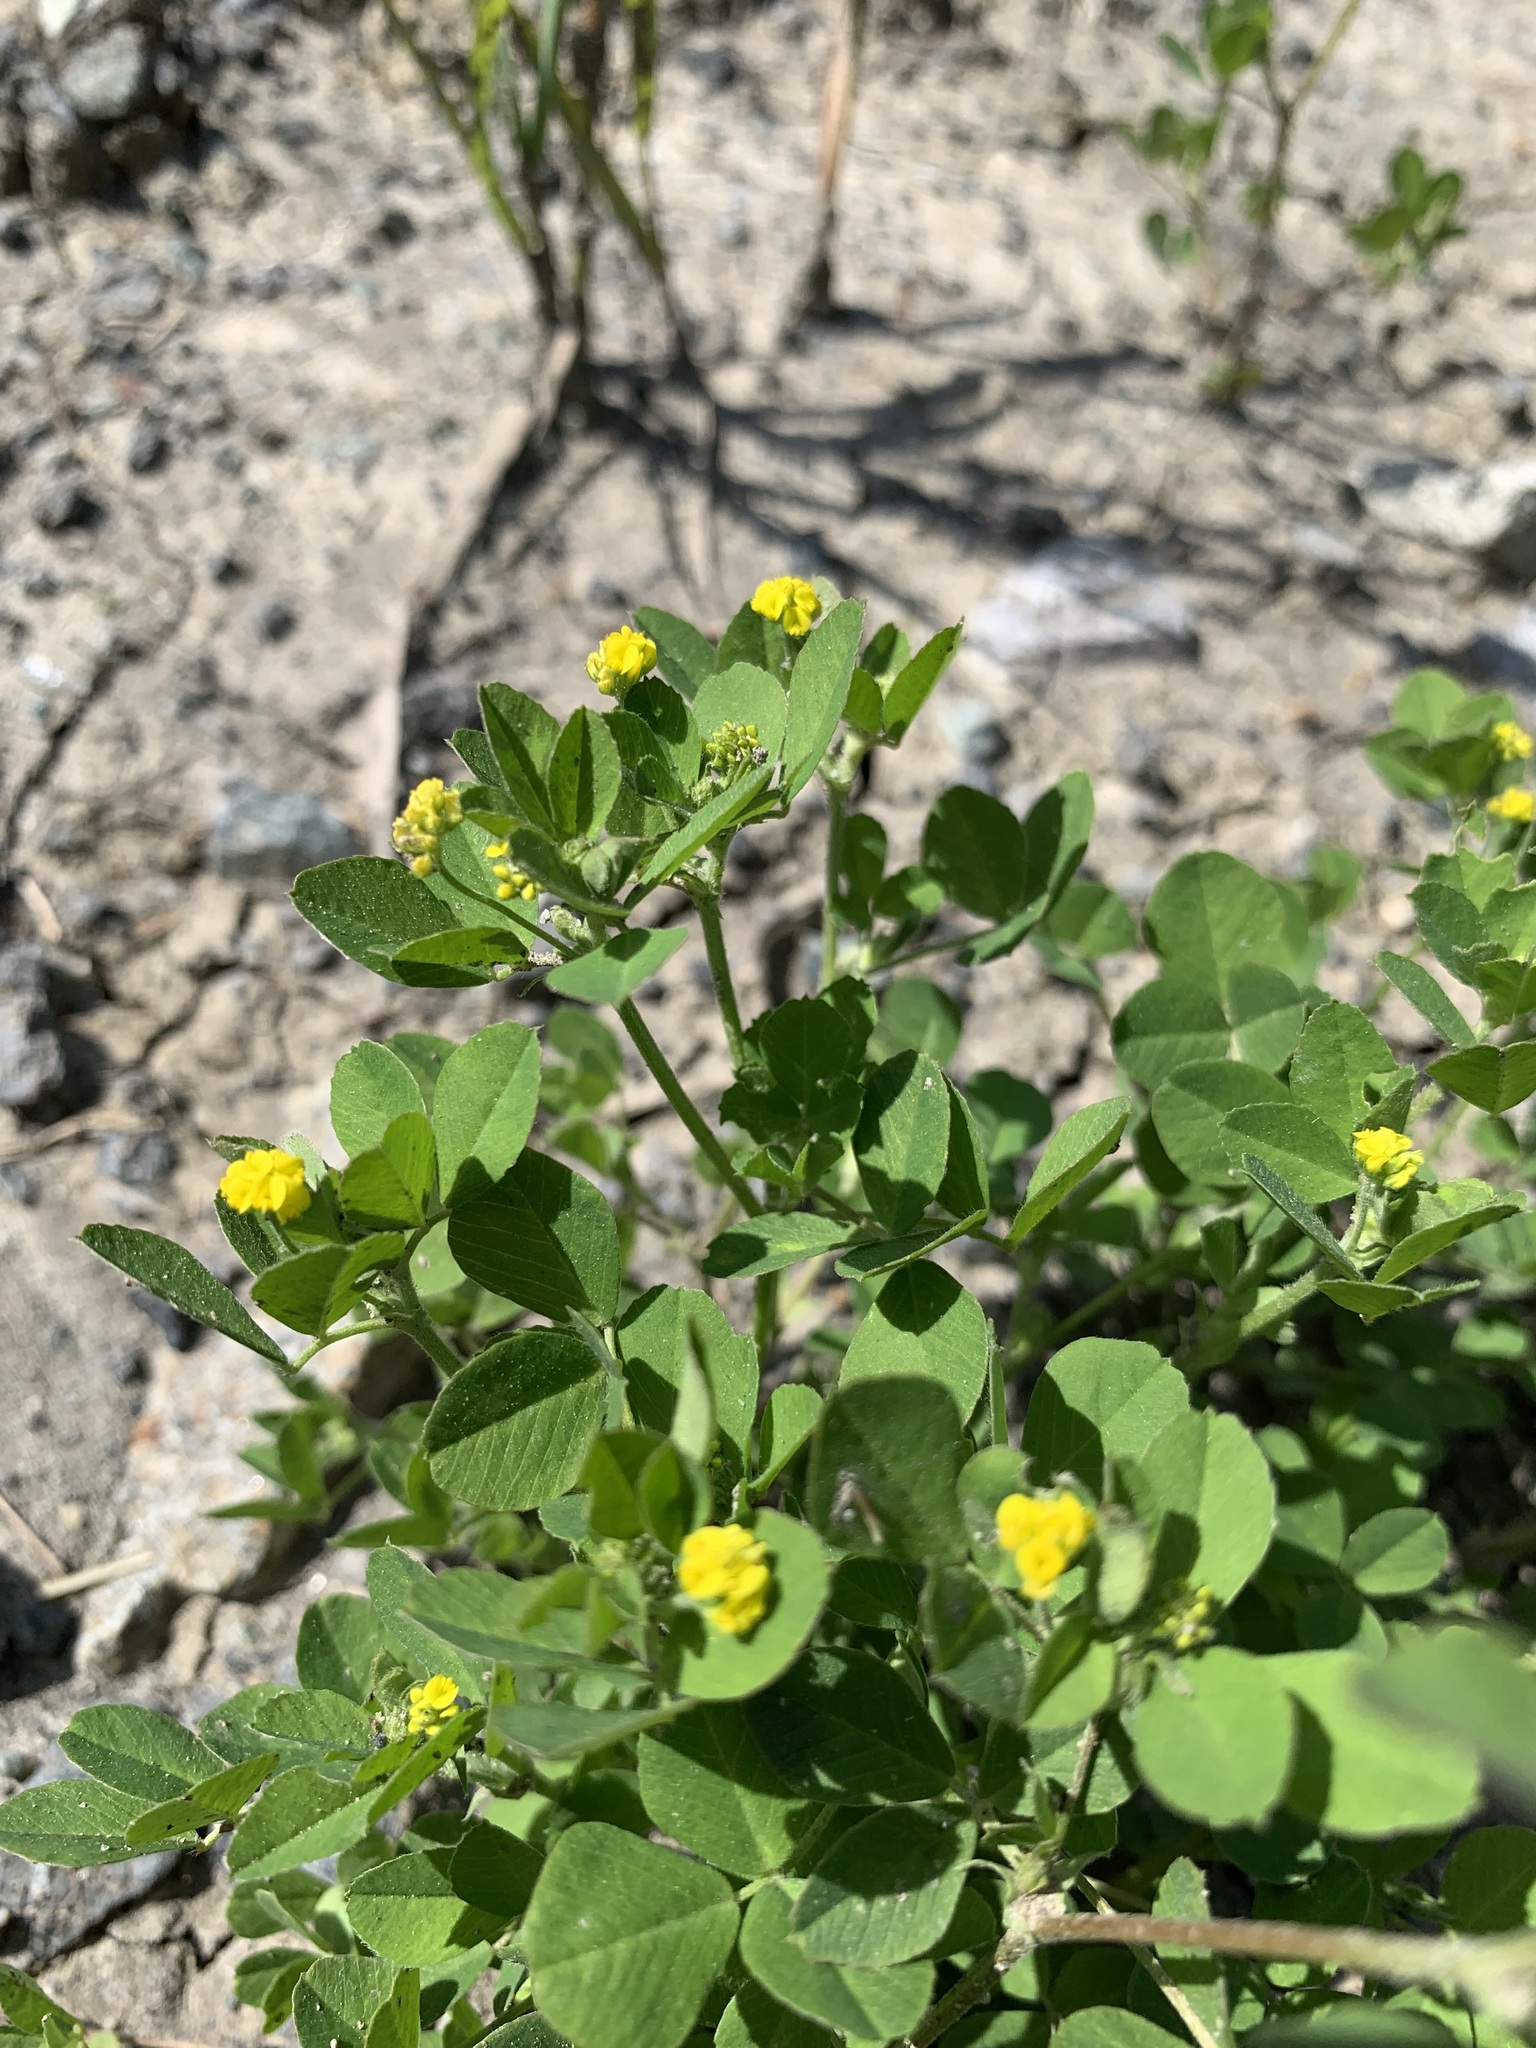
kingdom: Plantae
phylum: Tracheophyta
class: Magnoliopsida
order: Fabales
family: Fabaceae
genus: Medicago
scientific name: Medicago lupulina
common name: Black medick
